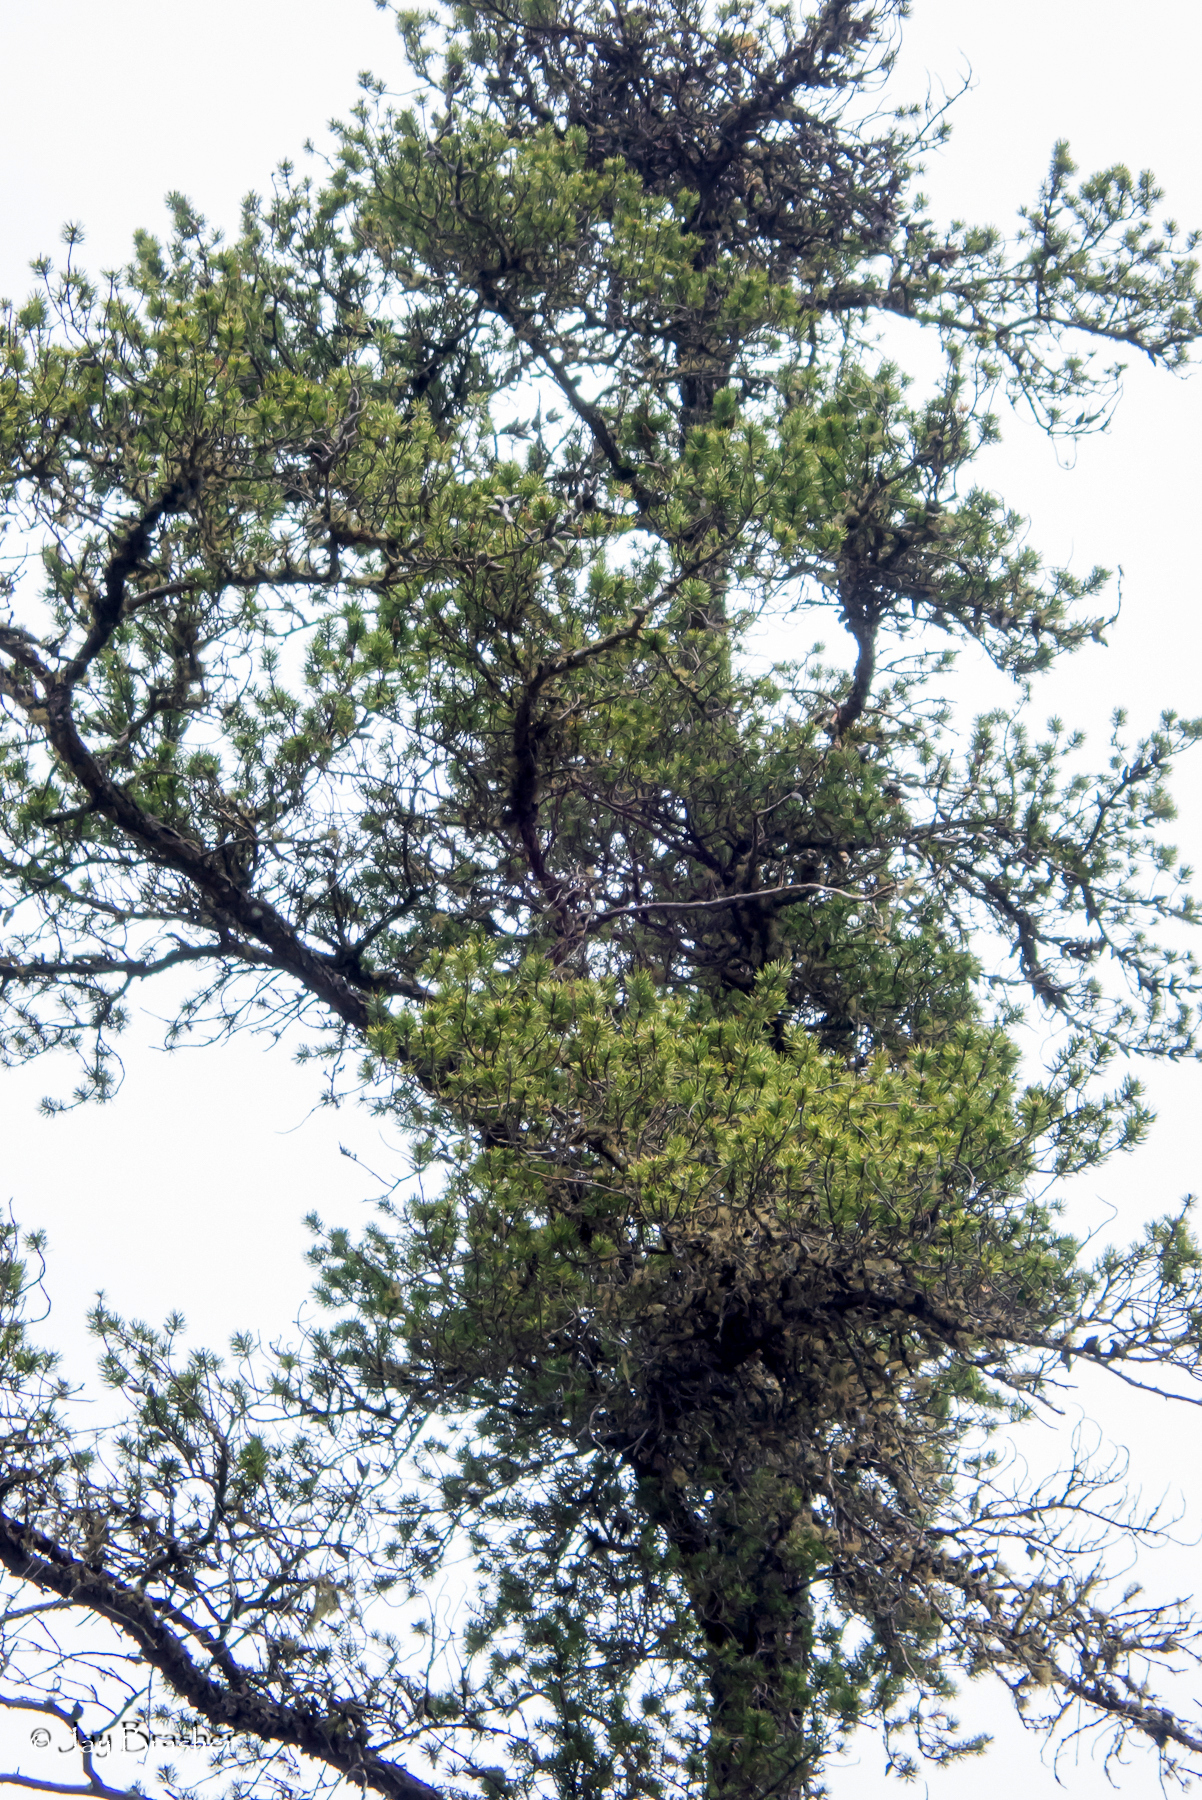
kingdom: Plantae
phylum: Tracheophyta
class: Pinopsida
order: Pinales
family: Pinaceae
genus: Pinus
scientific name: Pinus banksiana
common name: Jack pine
